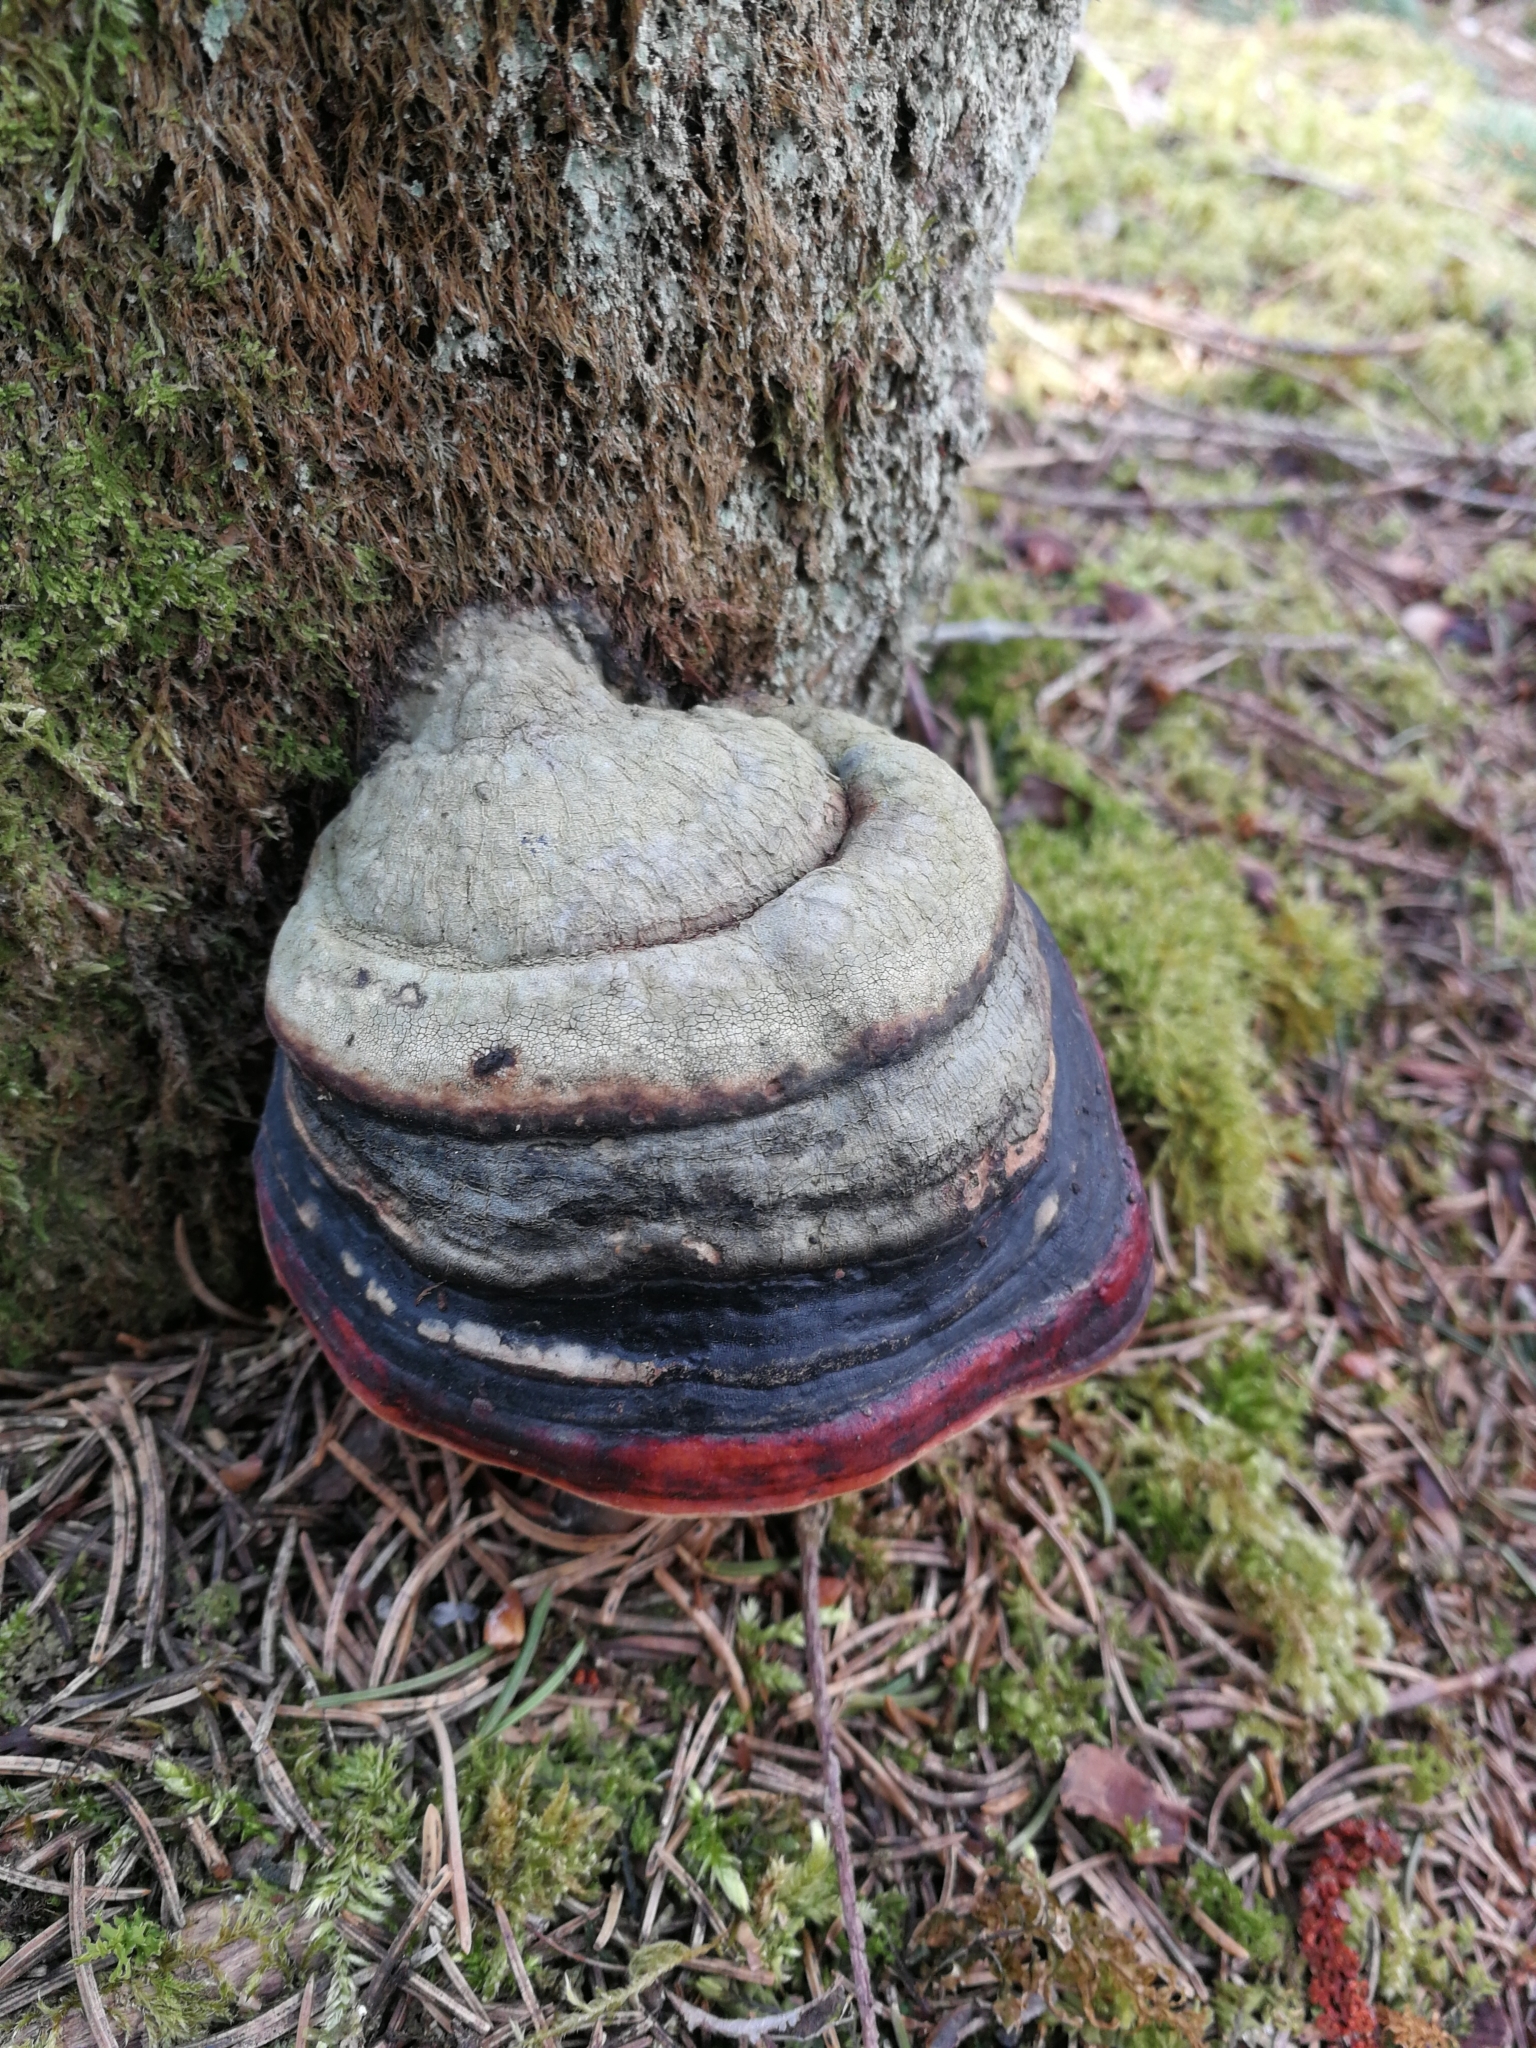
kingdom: Fungi
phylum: Basidiomycota
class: Agaricomycetes
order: Polyporales
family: Fomitopsidaceae
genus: Fomitopsis
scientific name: Fomitopsis pinicola
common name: Red-belted bracket
